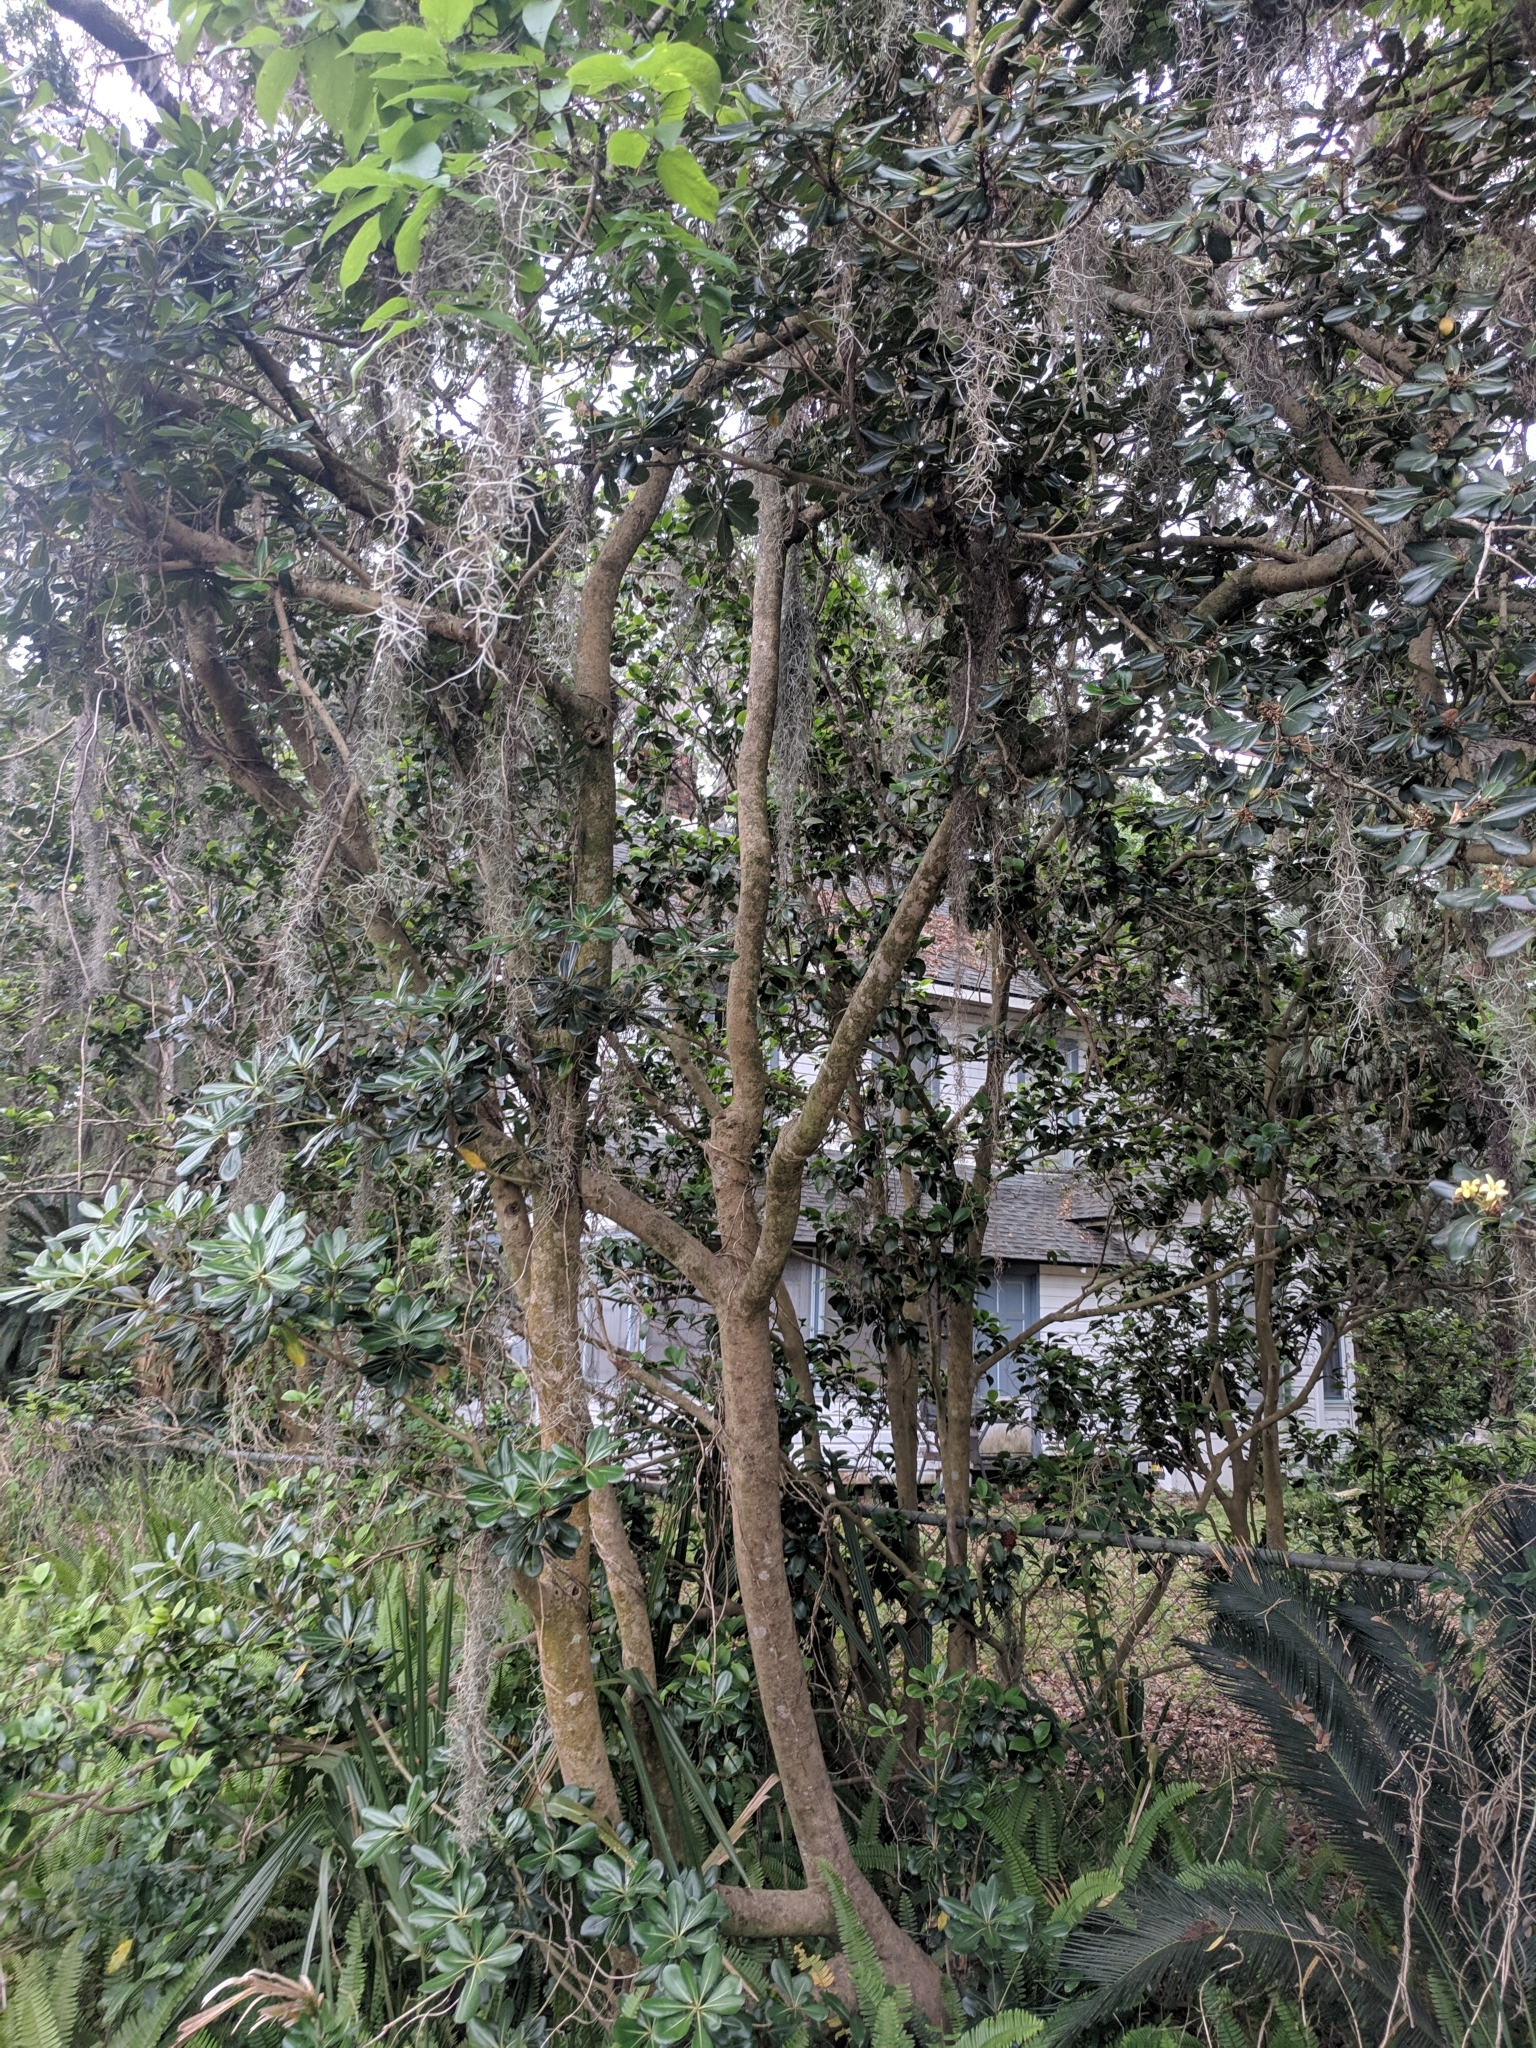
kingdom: Plantae
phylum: Tracheophyta
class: Magnoliopsida
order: Apiales
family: Pittosporaceae
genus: Pittosporum
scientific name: Pittosporum tobira
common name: Japanese cheesewood
